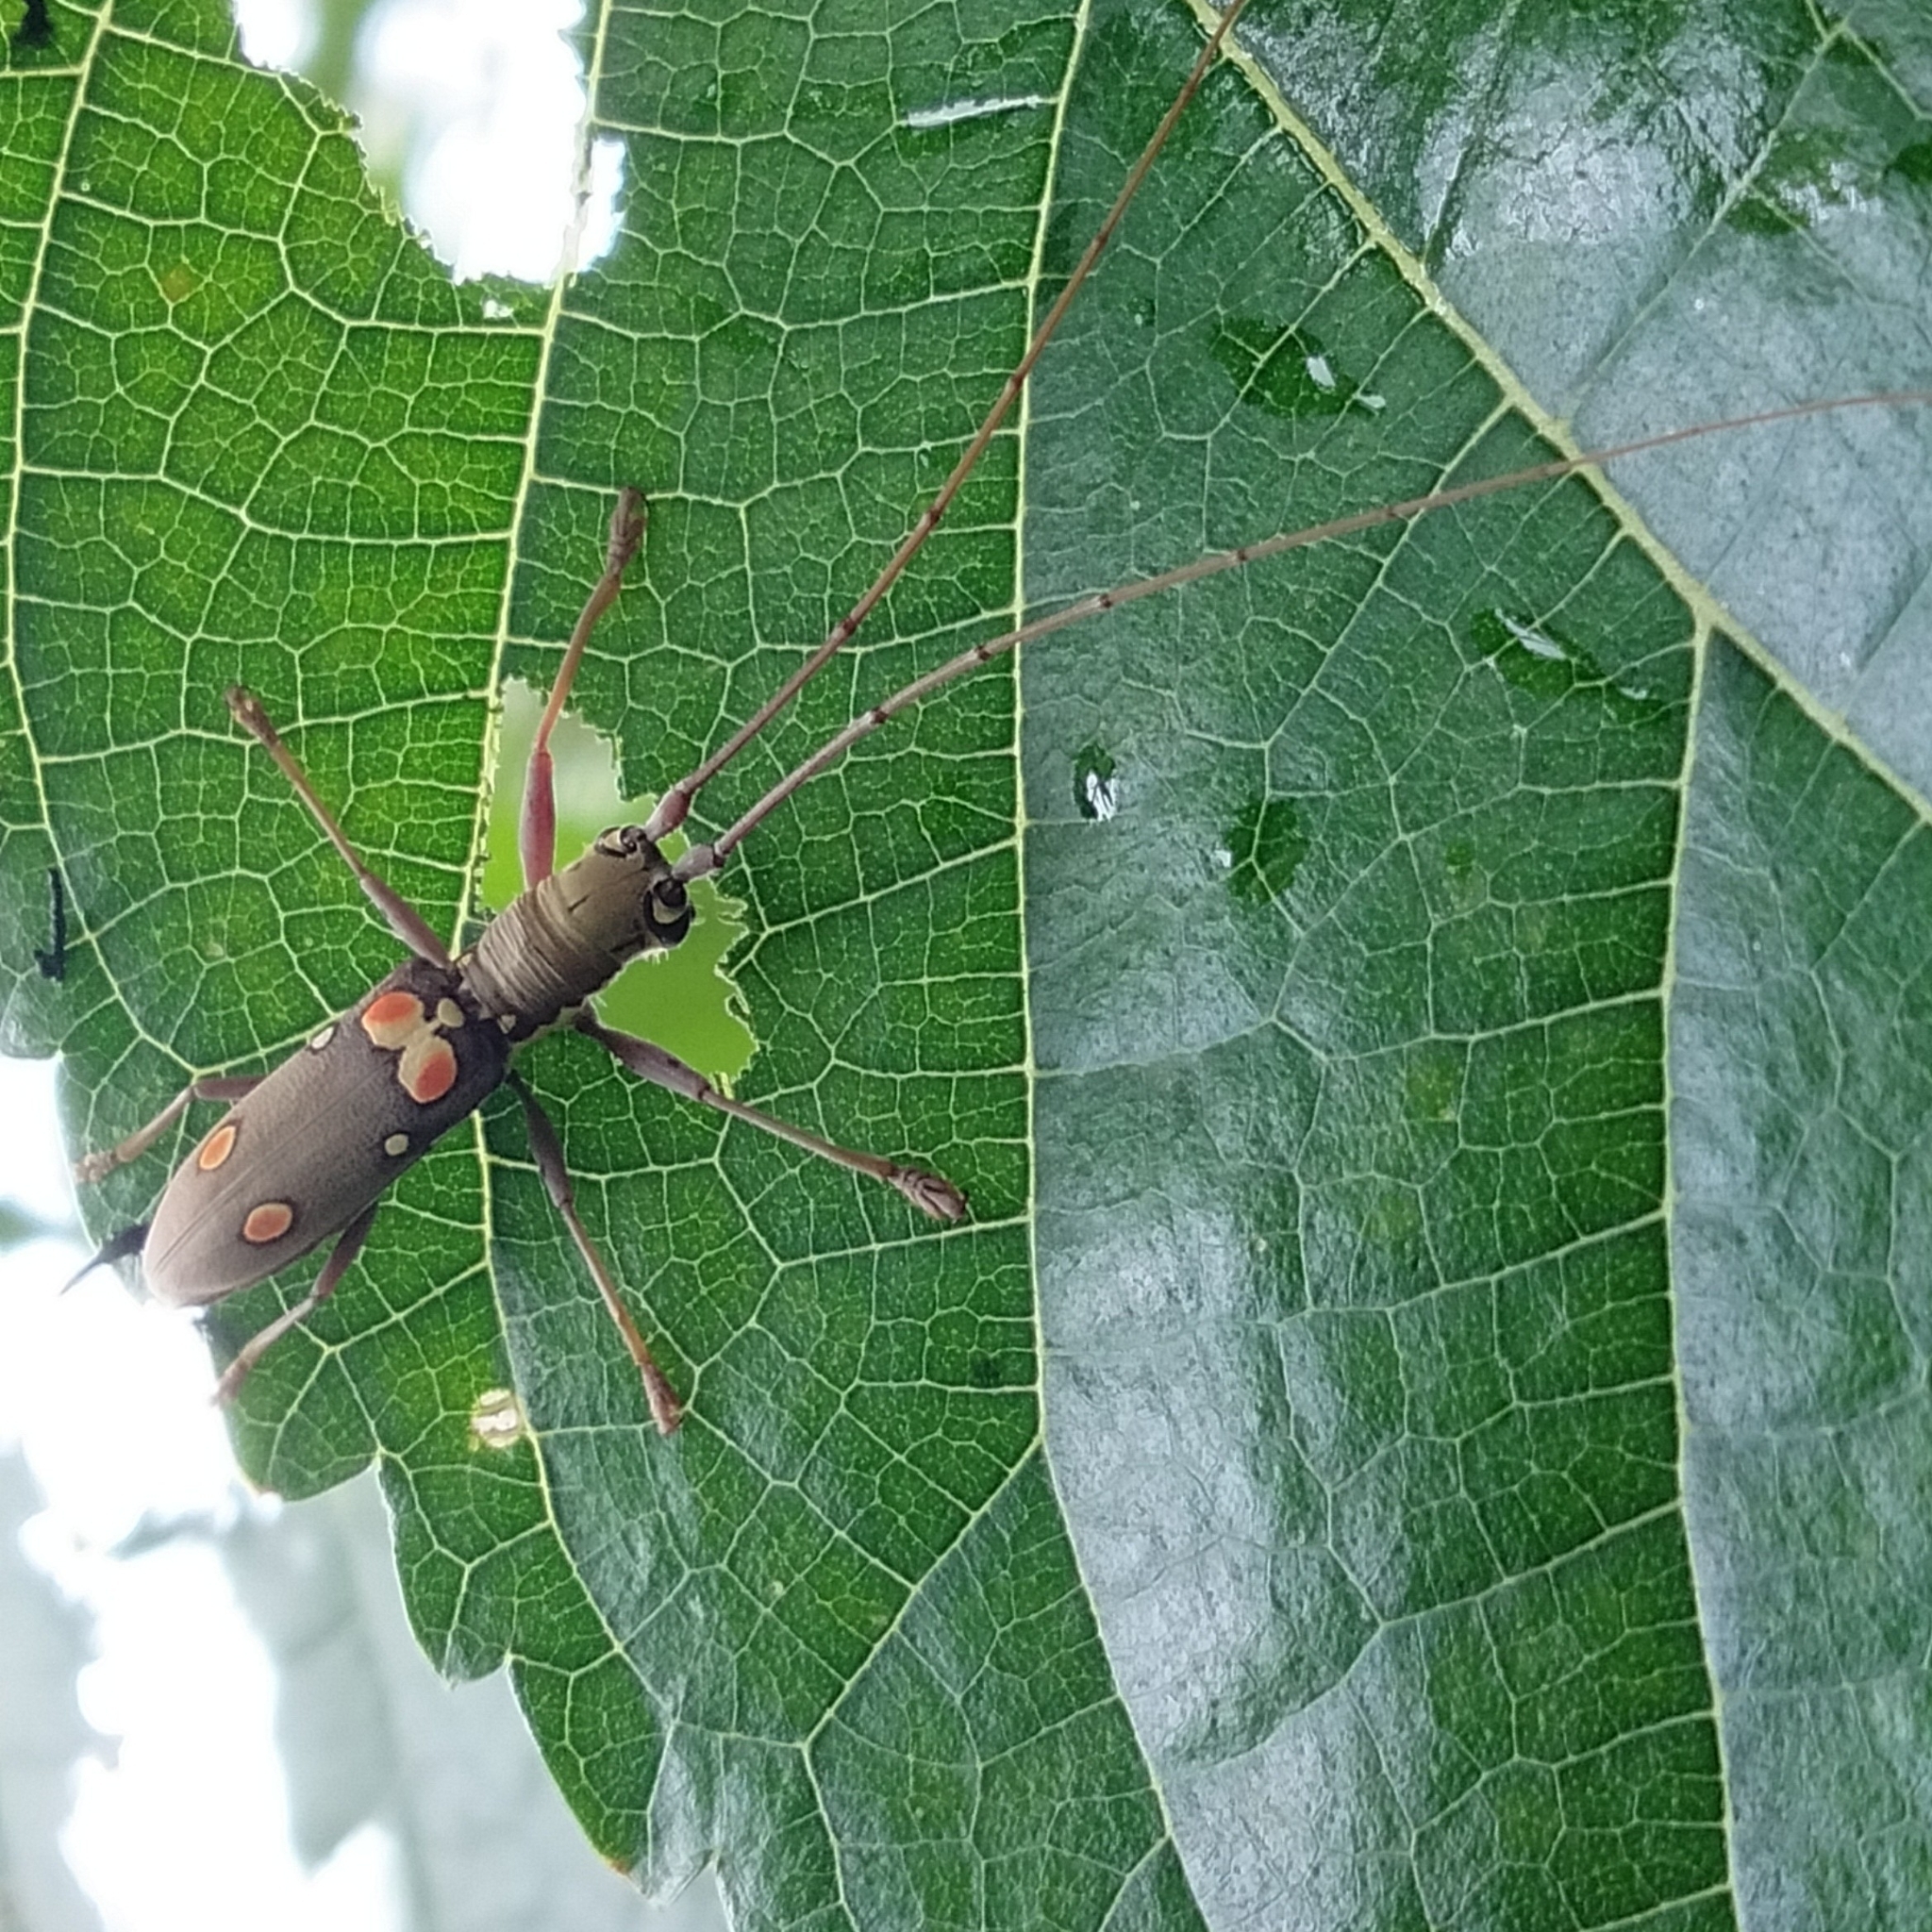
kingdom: Animalia
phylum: Arthropoda
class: Insecta
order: Coleoptera
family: Cerambycidae
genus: Olenecamptus
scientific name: Olenecamptus bilobus
